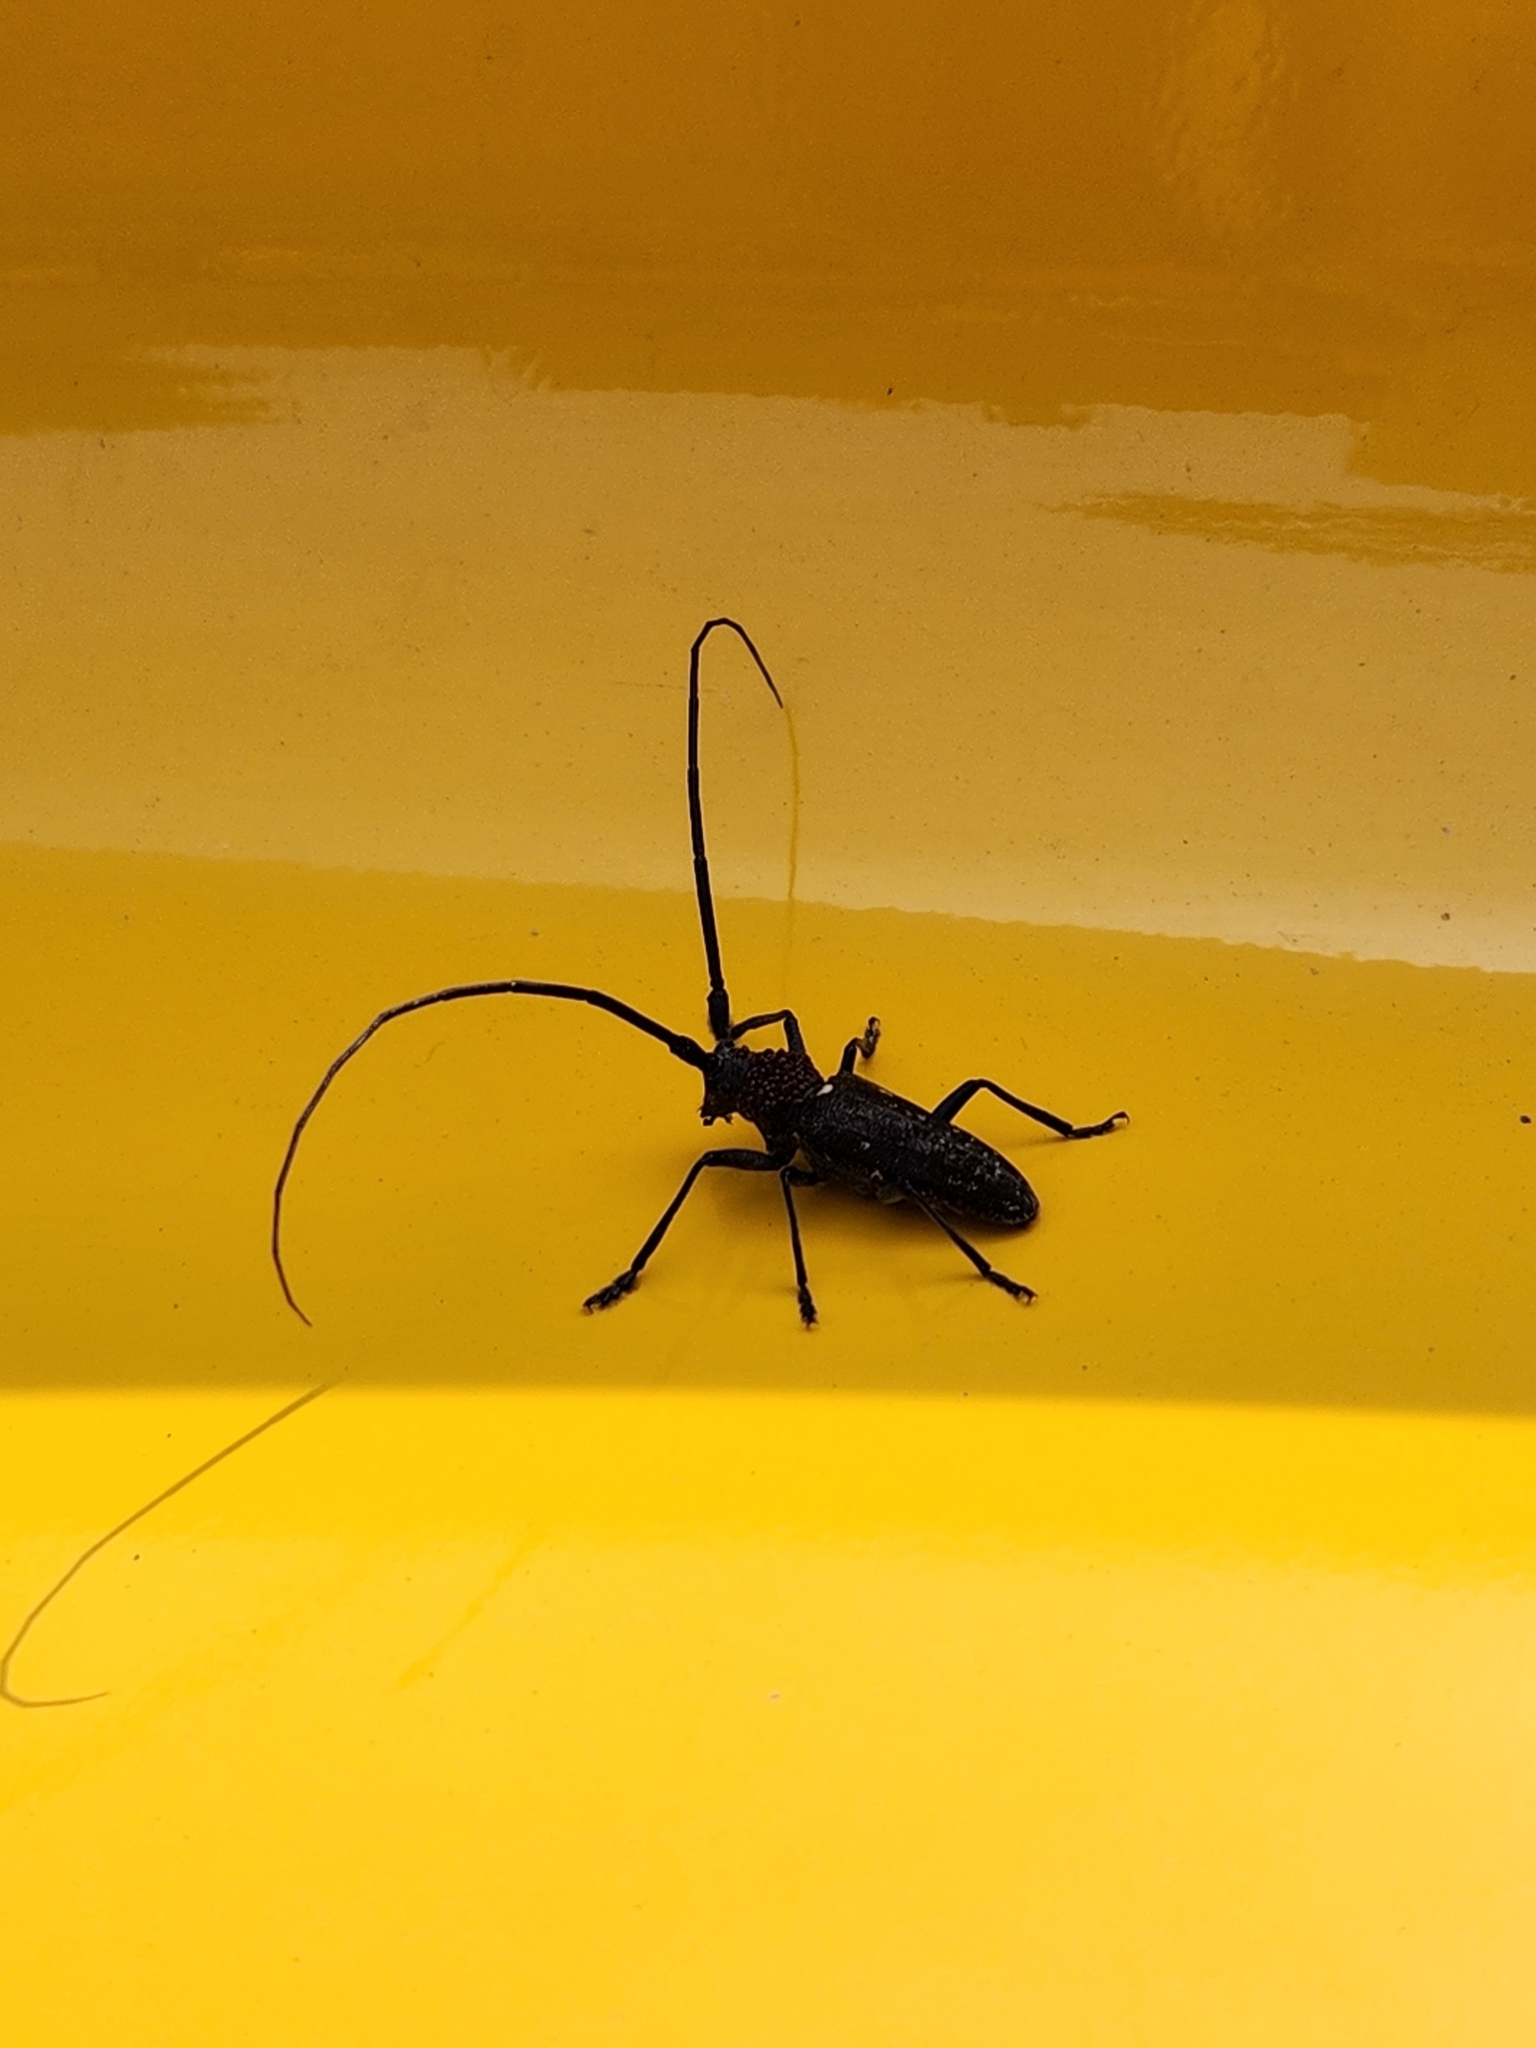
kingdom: Animalia
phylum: Arthropoda
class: Insecta
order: Coleoptera
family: Cerambycidae
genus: Monochamus
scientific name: Monochamus scutellatus
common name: White-spotted sawyer beetle
